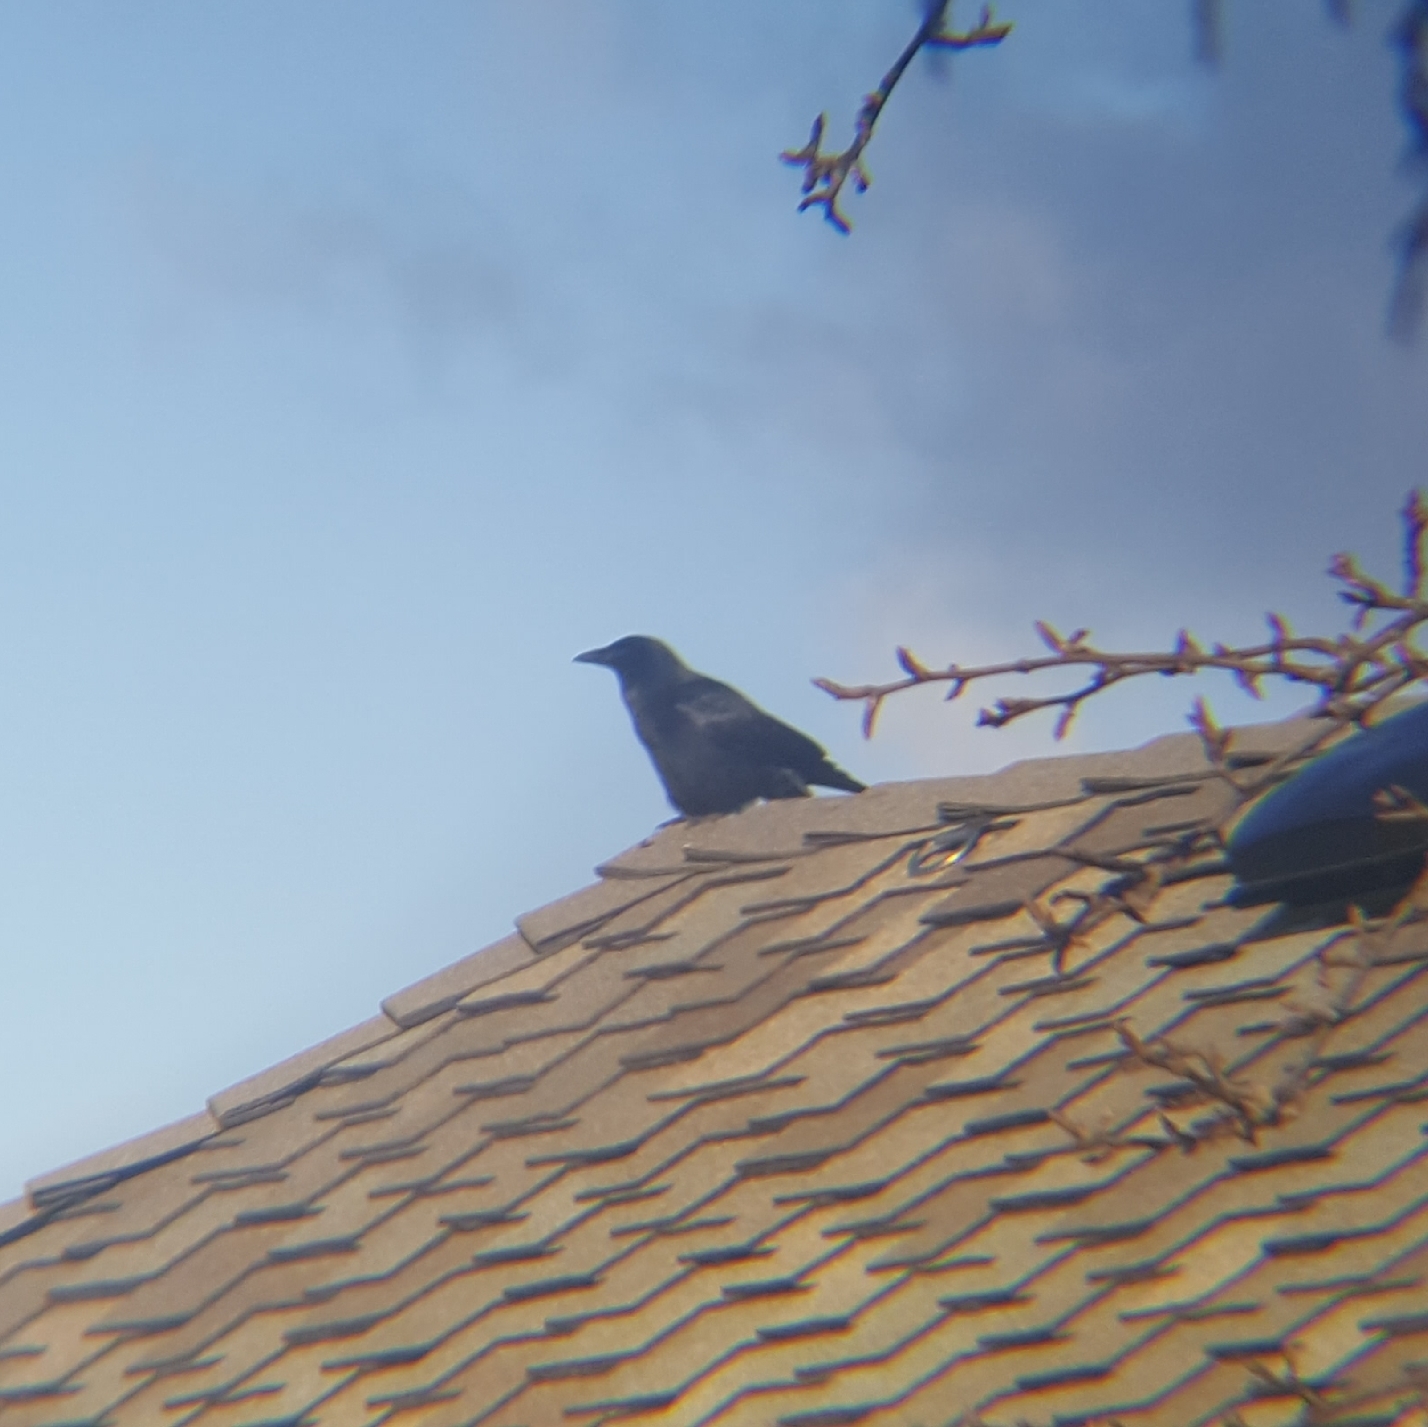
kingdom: Animalia
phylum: Chordata
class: Aves
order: Passeriformes
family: Corvidae
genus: Corvus
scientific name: Corvus brachyrhynchos
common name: American crow
